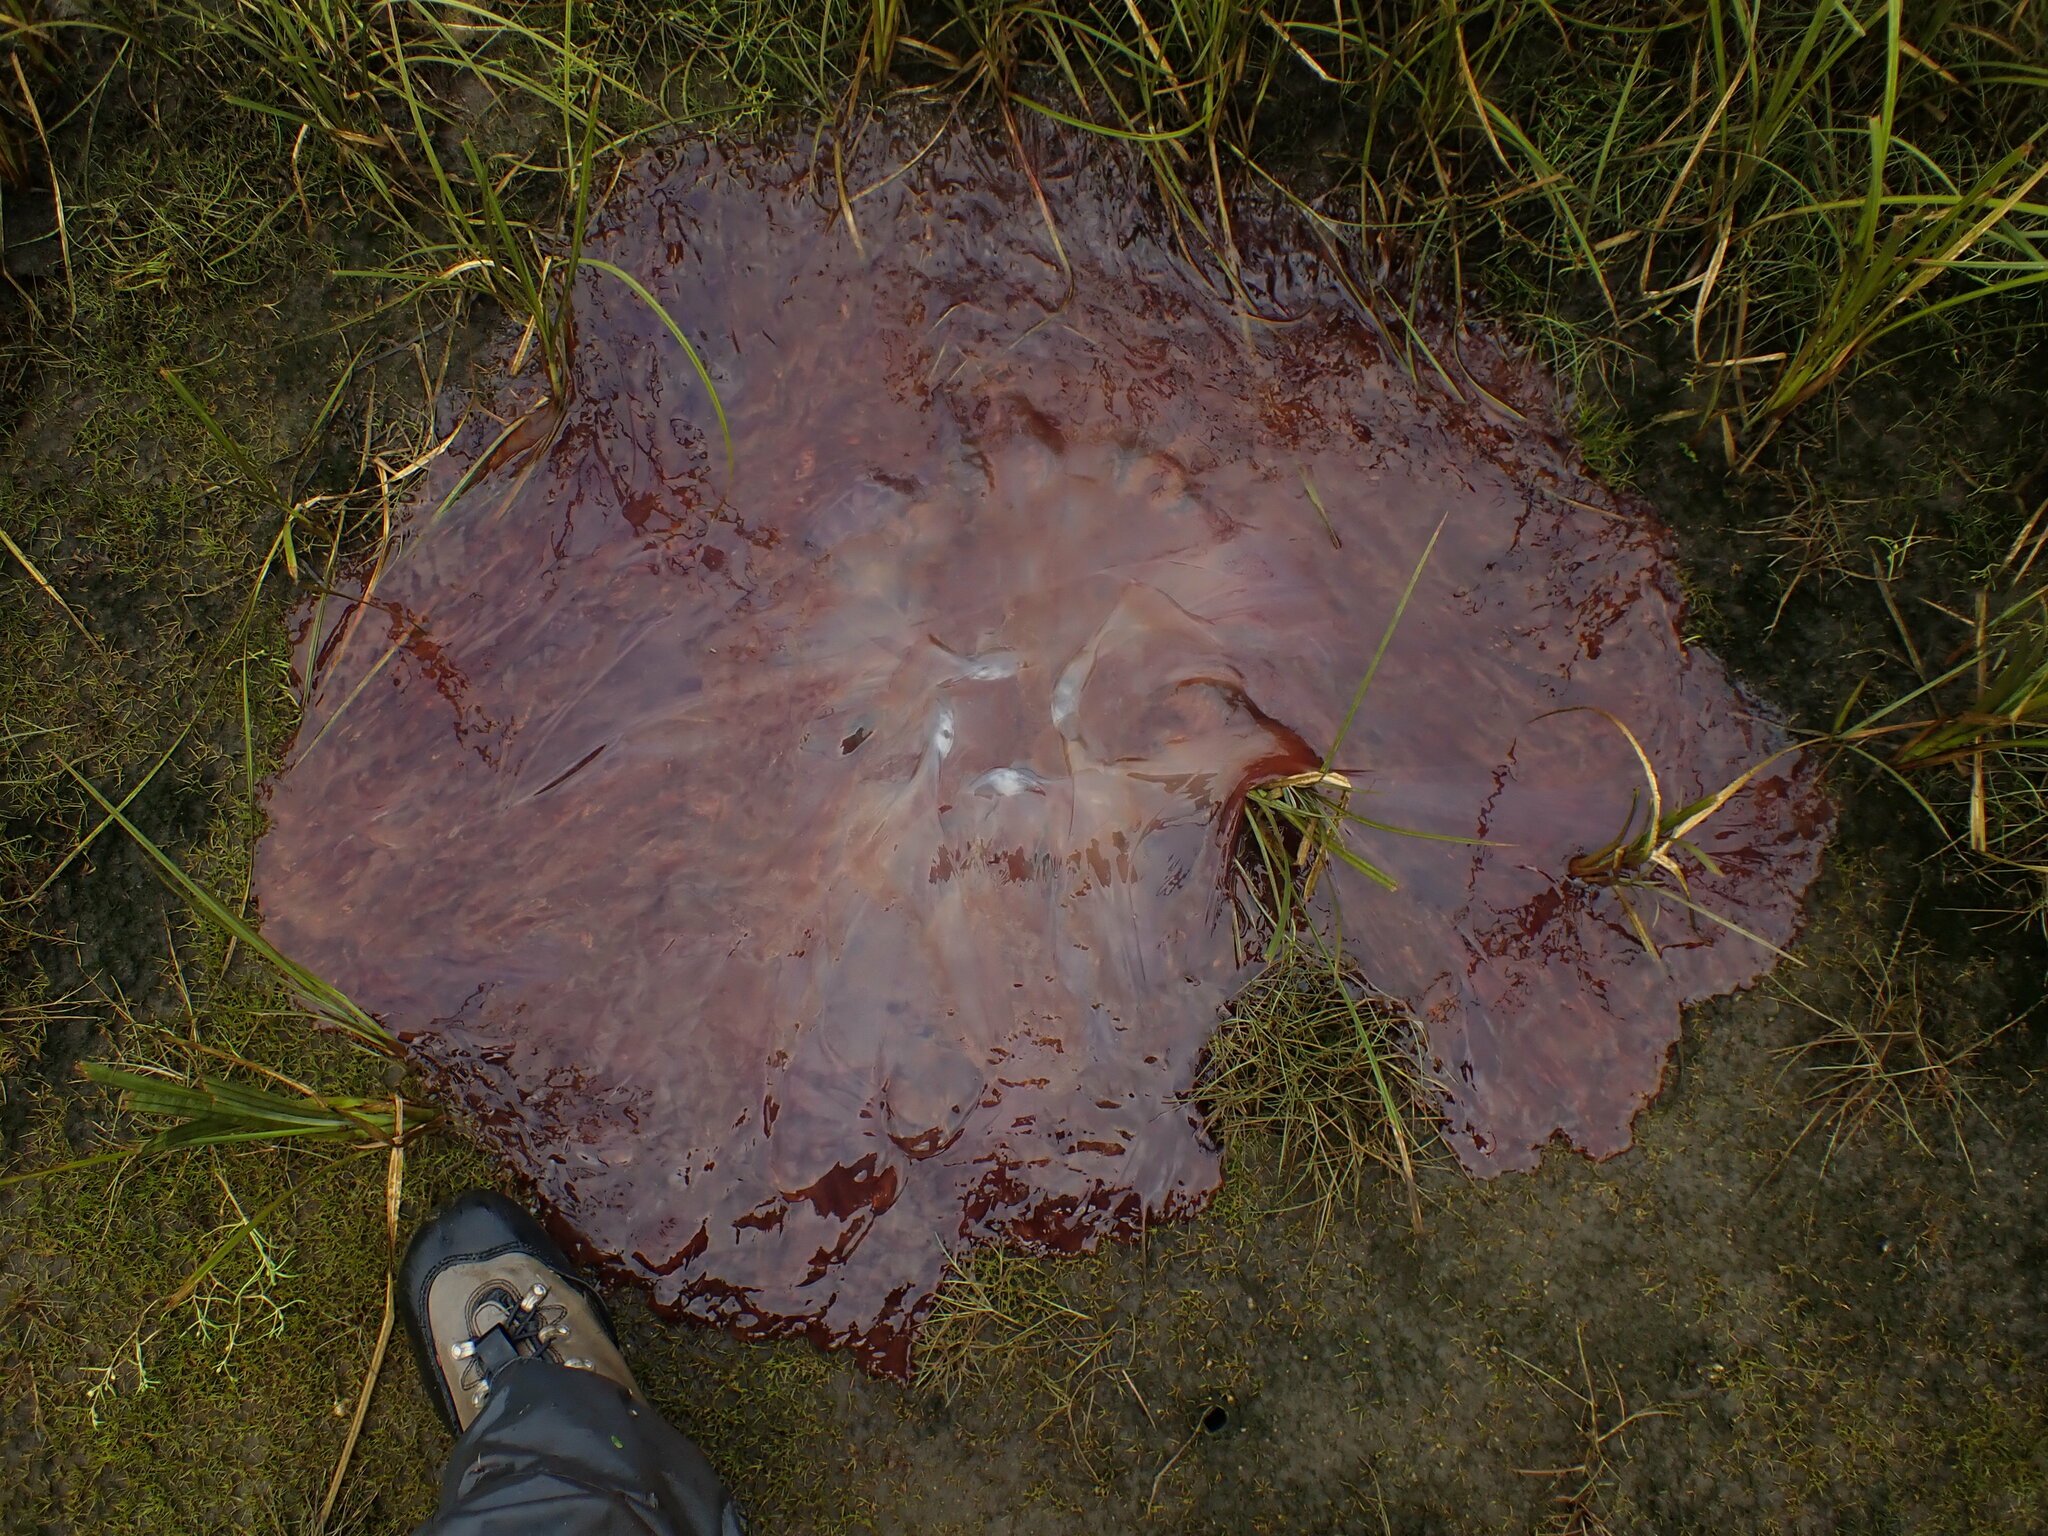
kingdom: Animalia
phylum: Cnidaria
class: Scyphozoa
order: Semaeostomeae
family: Cyaneidae
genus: Cyanea
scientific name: Cyanea ferruginea
